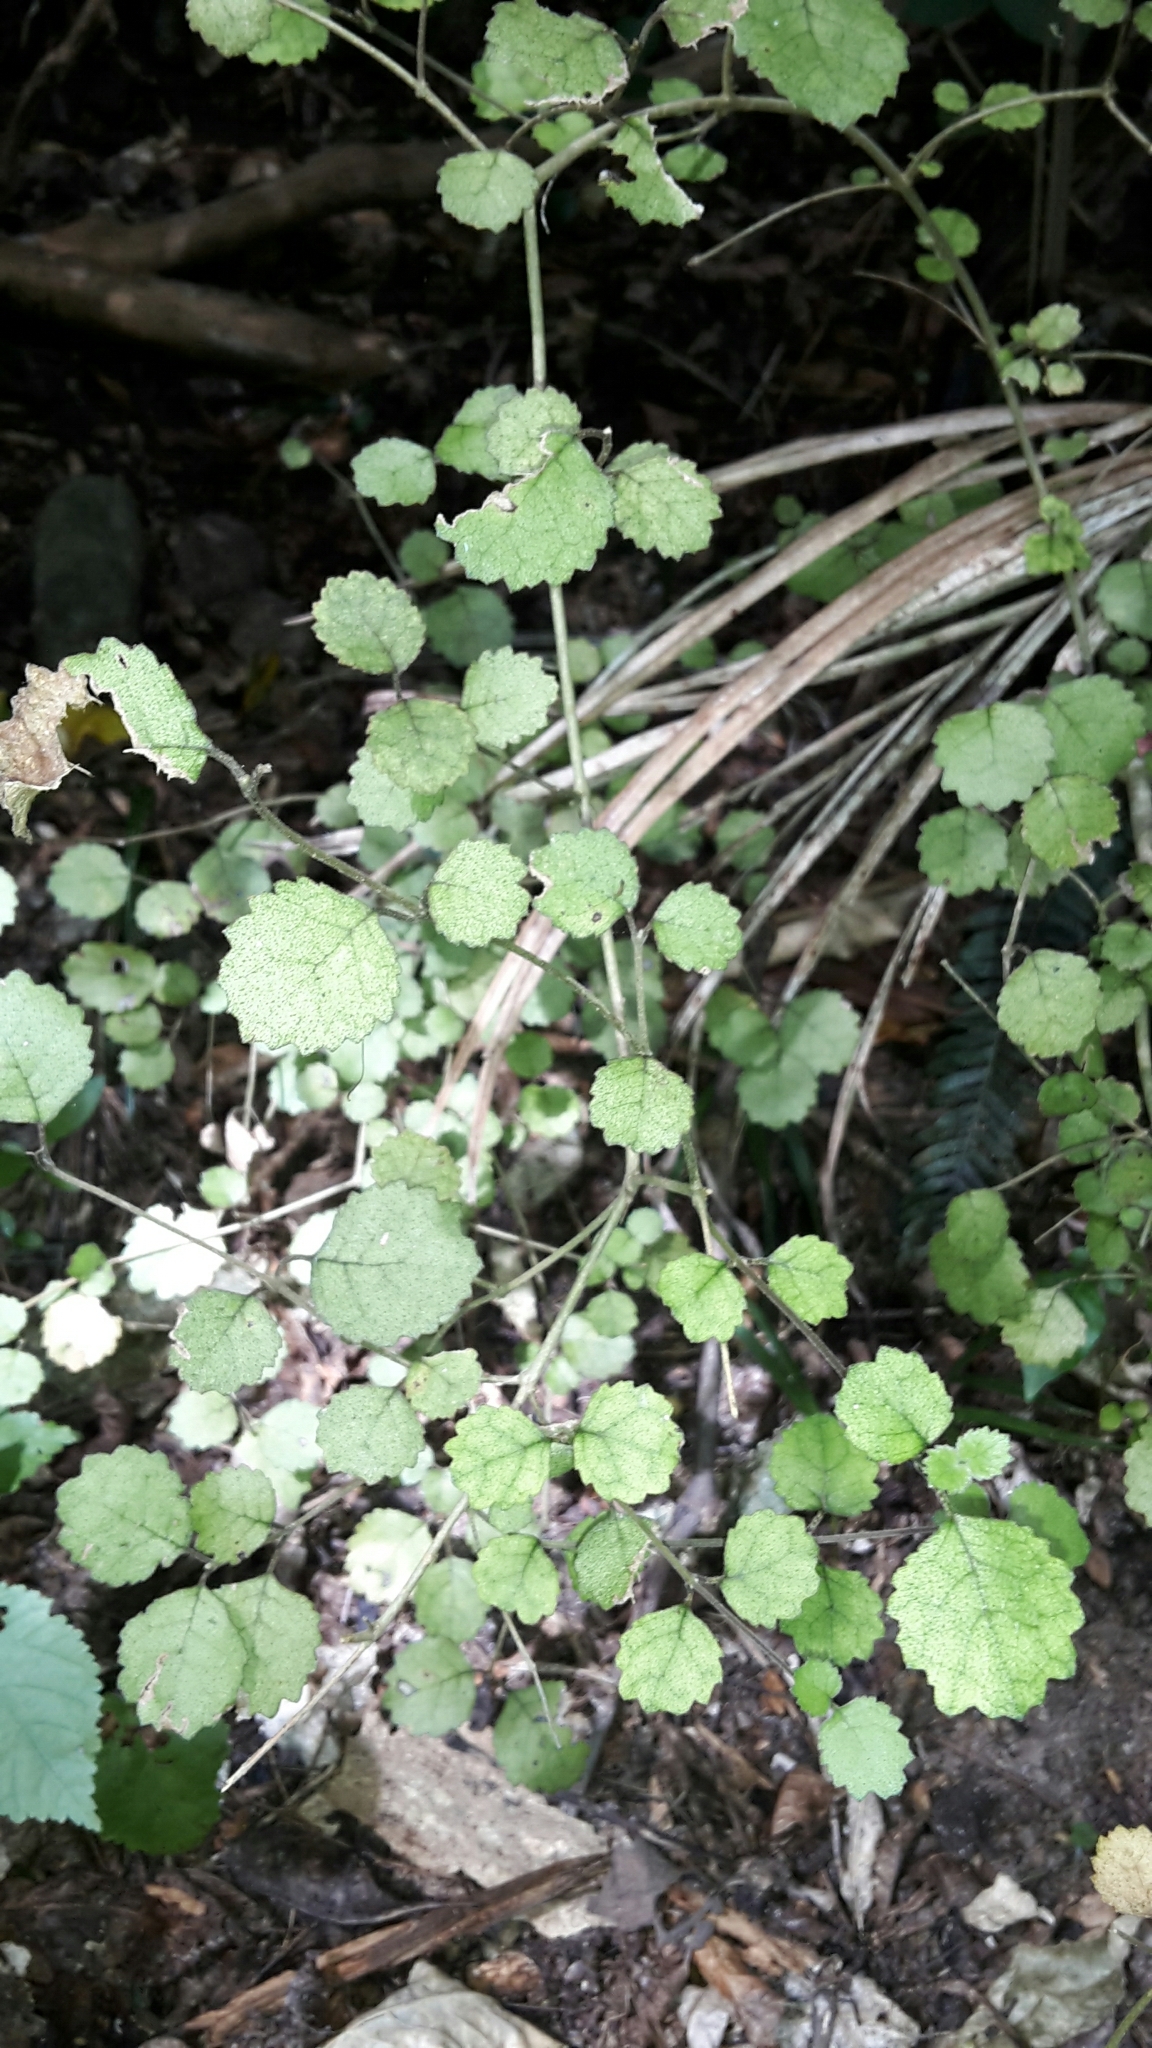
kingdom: Plantae
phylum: Tracheophyta
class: Magnoliopsida
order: Lamiales
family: Gesneriaceae
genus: Rhabdothamnus
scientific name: Rhabdothamnus solandri
